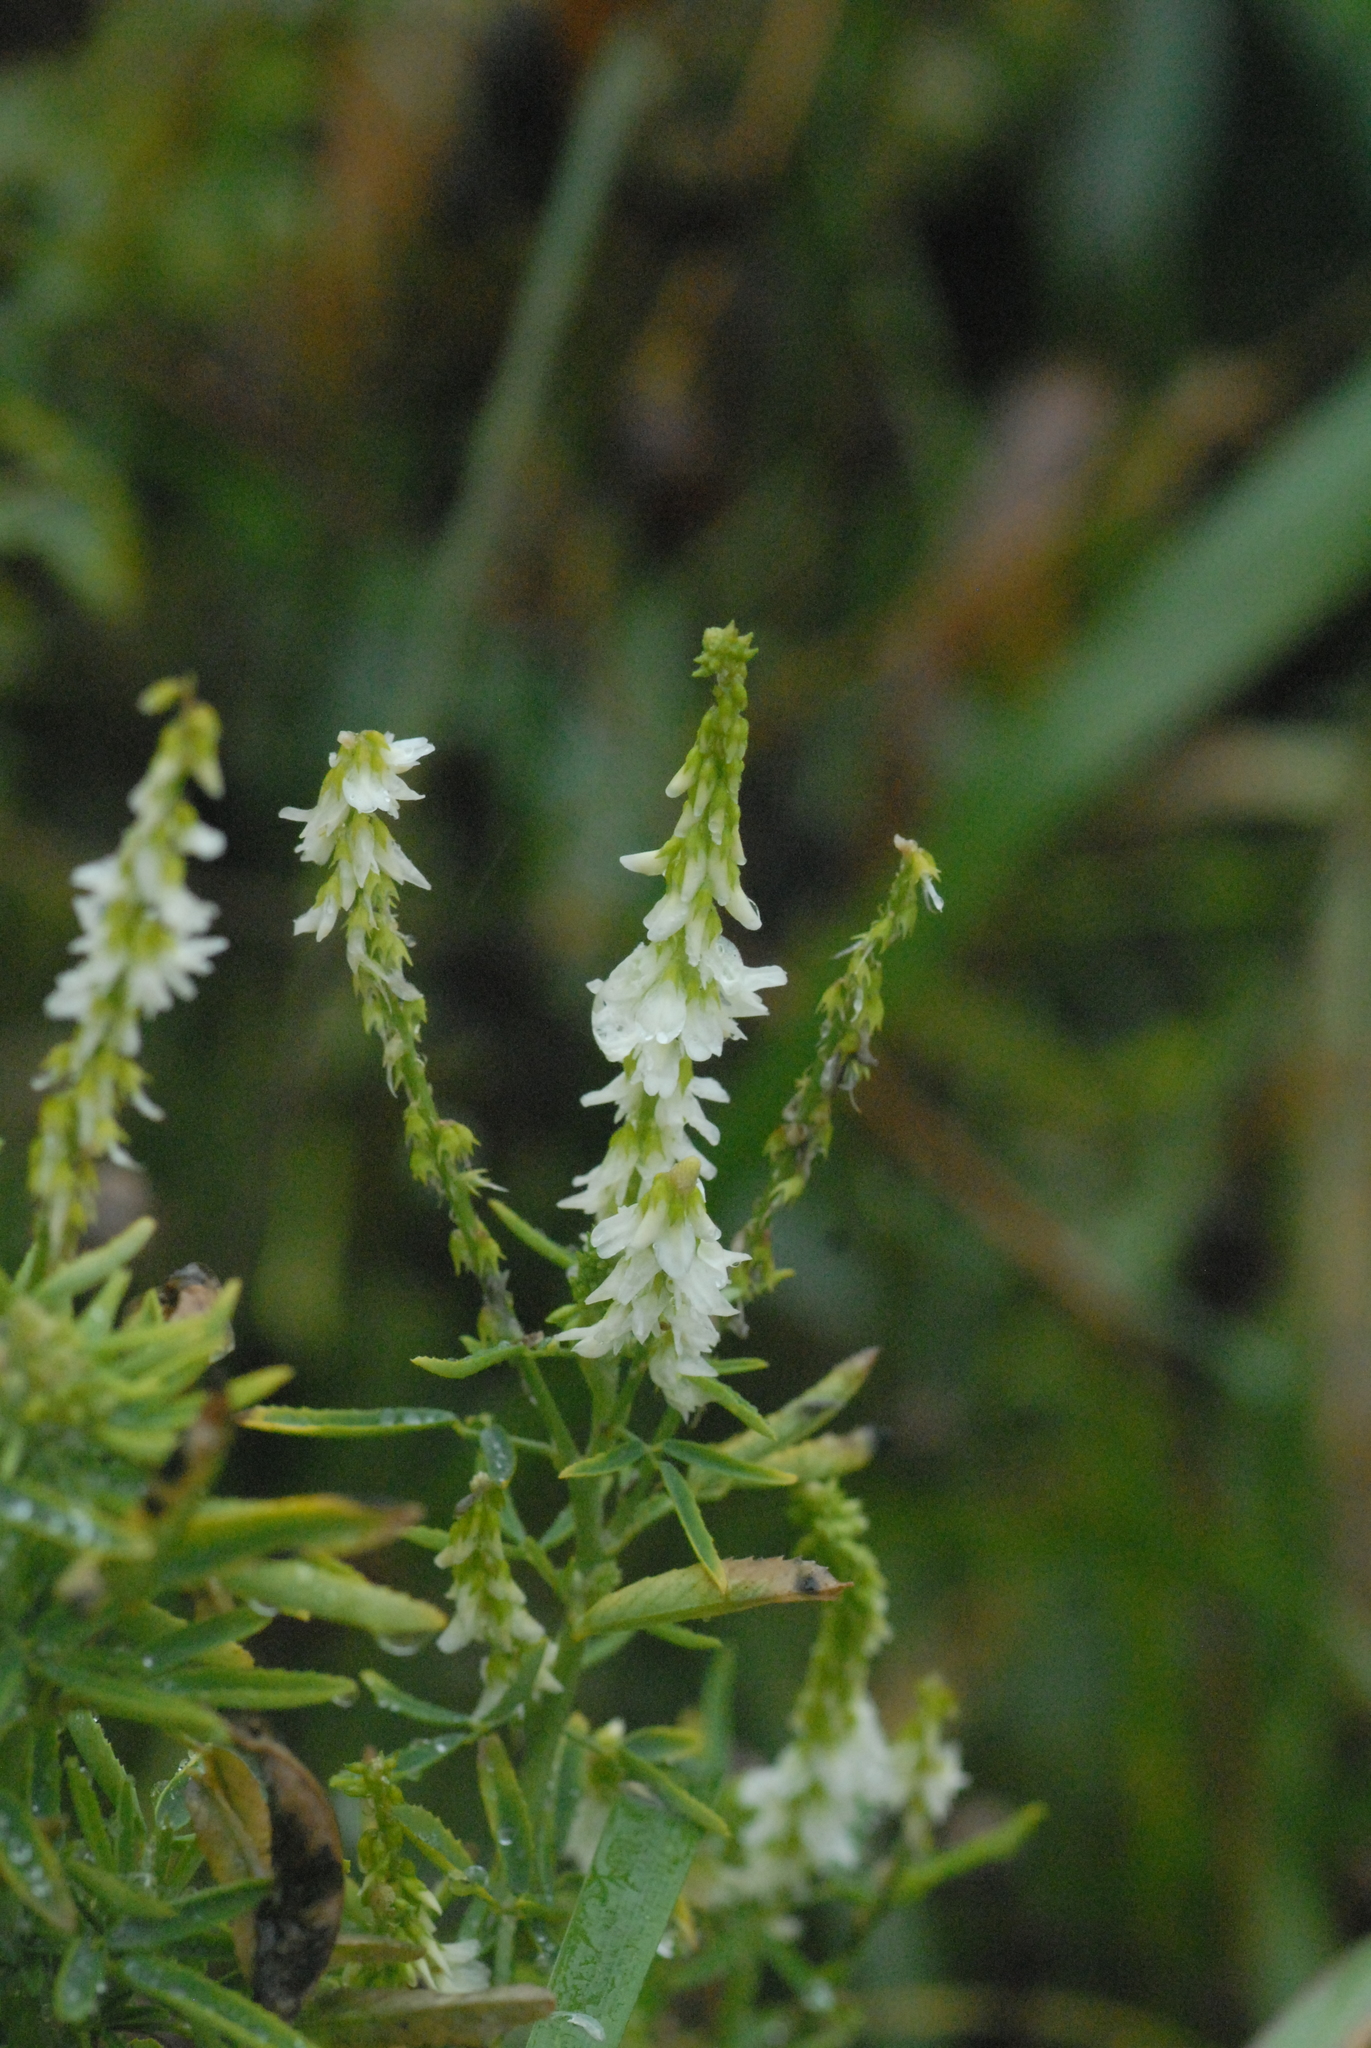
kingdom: Plantae
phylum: Tracheophyta
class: Magnoliopsida
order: Fabales
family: Fabaceae
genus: Melilotus
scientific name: Melilotus albus
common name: White melilot
